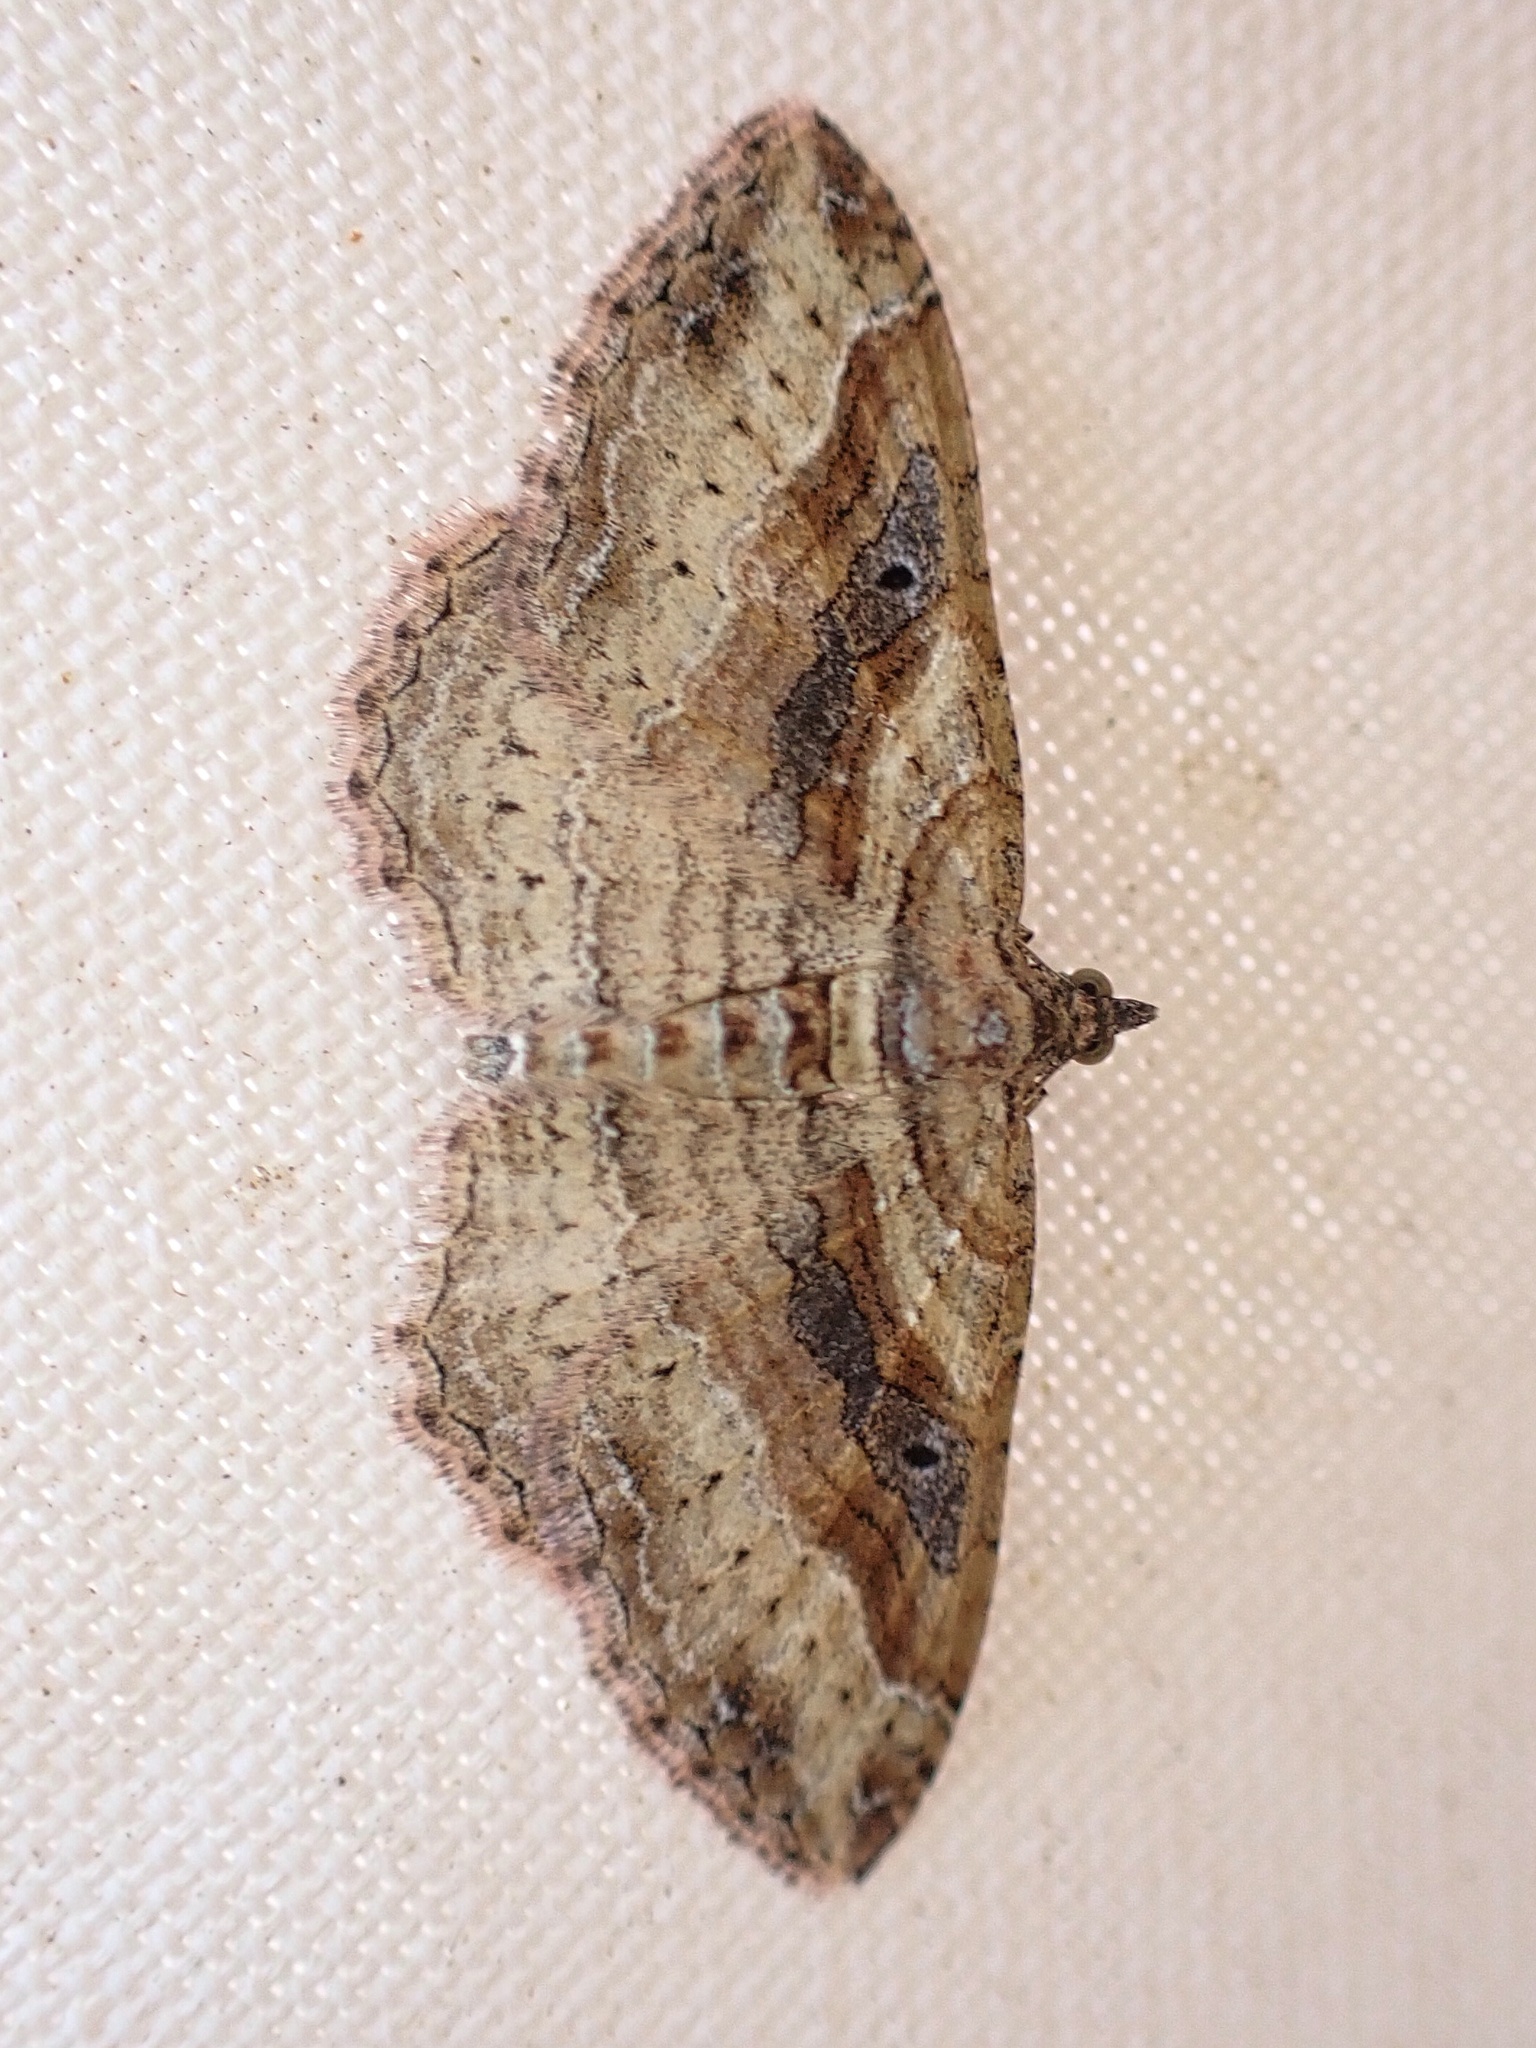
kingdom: Animalia
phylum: Arthropoda
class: Insecta
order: Lepidoptera
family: Geometridae
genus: Costaconvexa
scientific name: Costaconvexa centrostrigaria
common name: Bent-line carpet
